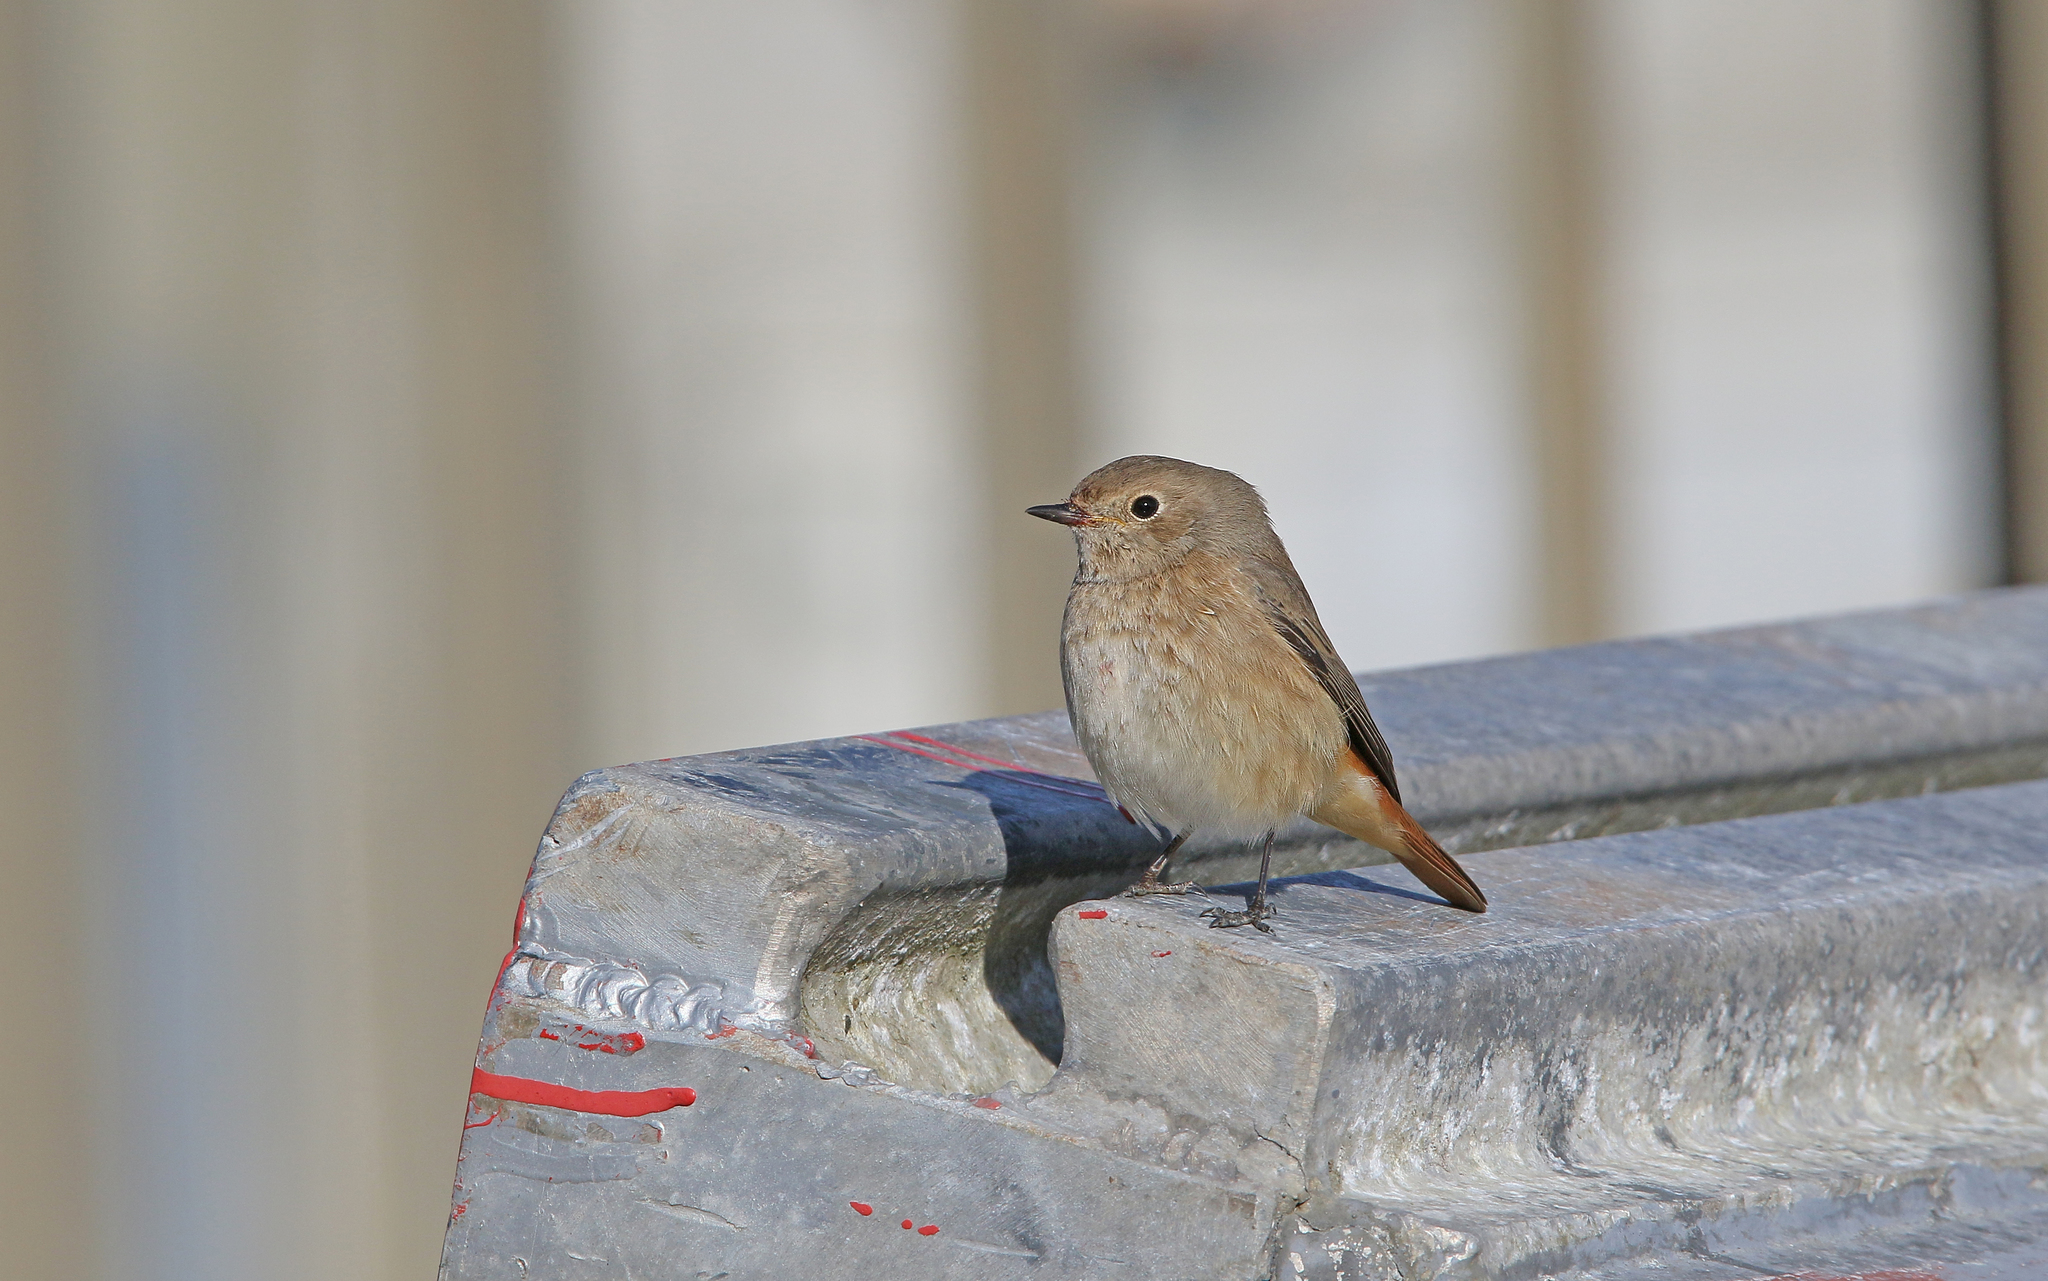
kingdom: Animalia
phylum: Chordata
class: Aves
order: Passeriformes
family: Muscicapidae
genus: Phoenicurus
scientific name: Phoenicurus phoenicurus
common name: Common redstart
